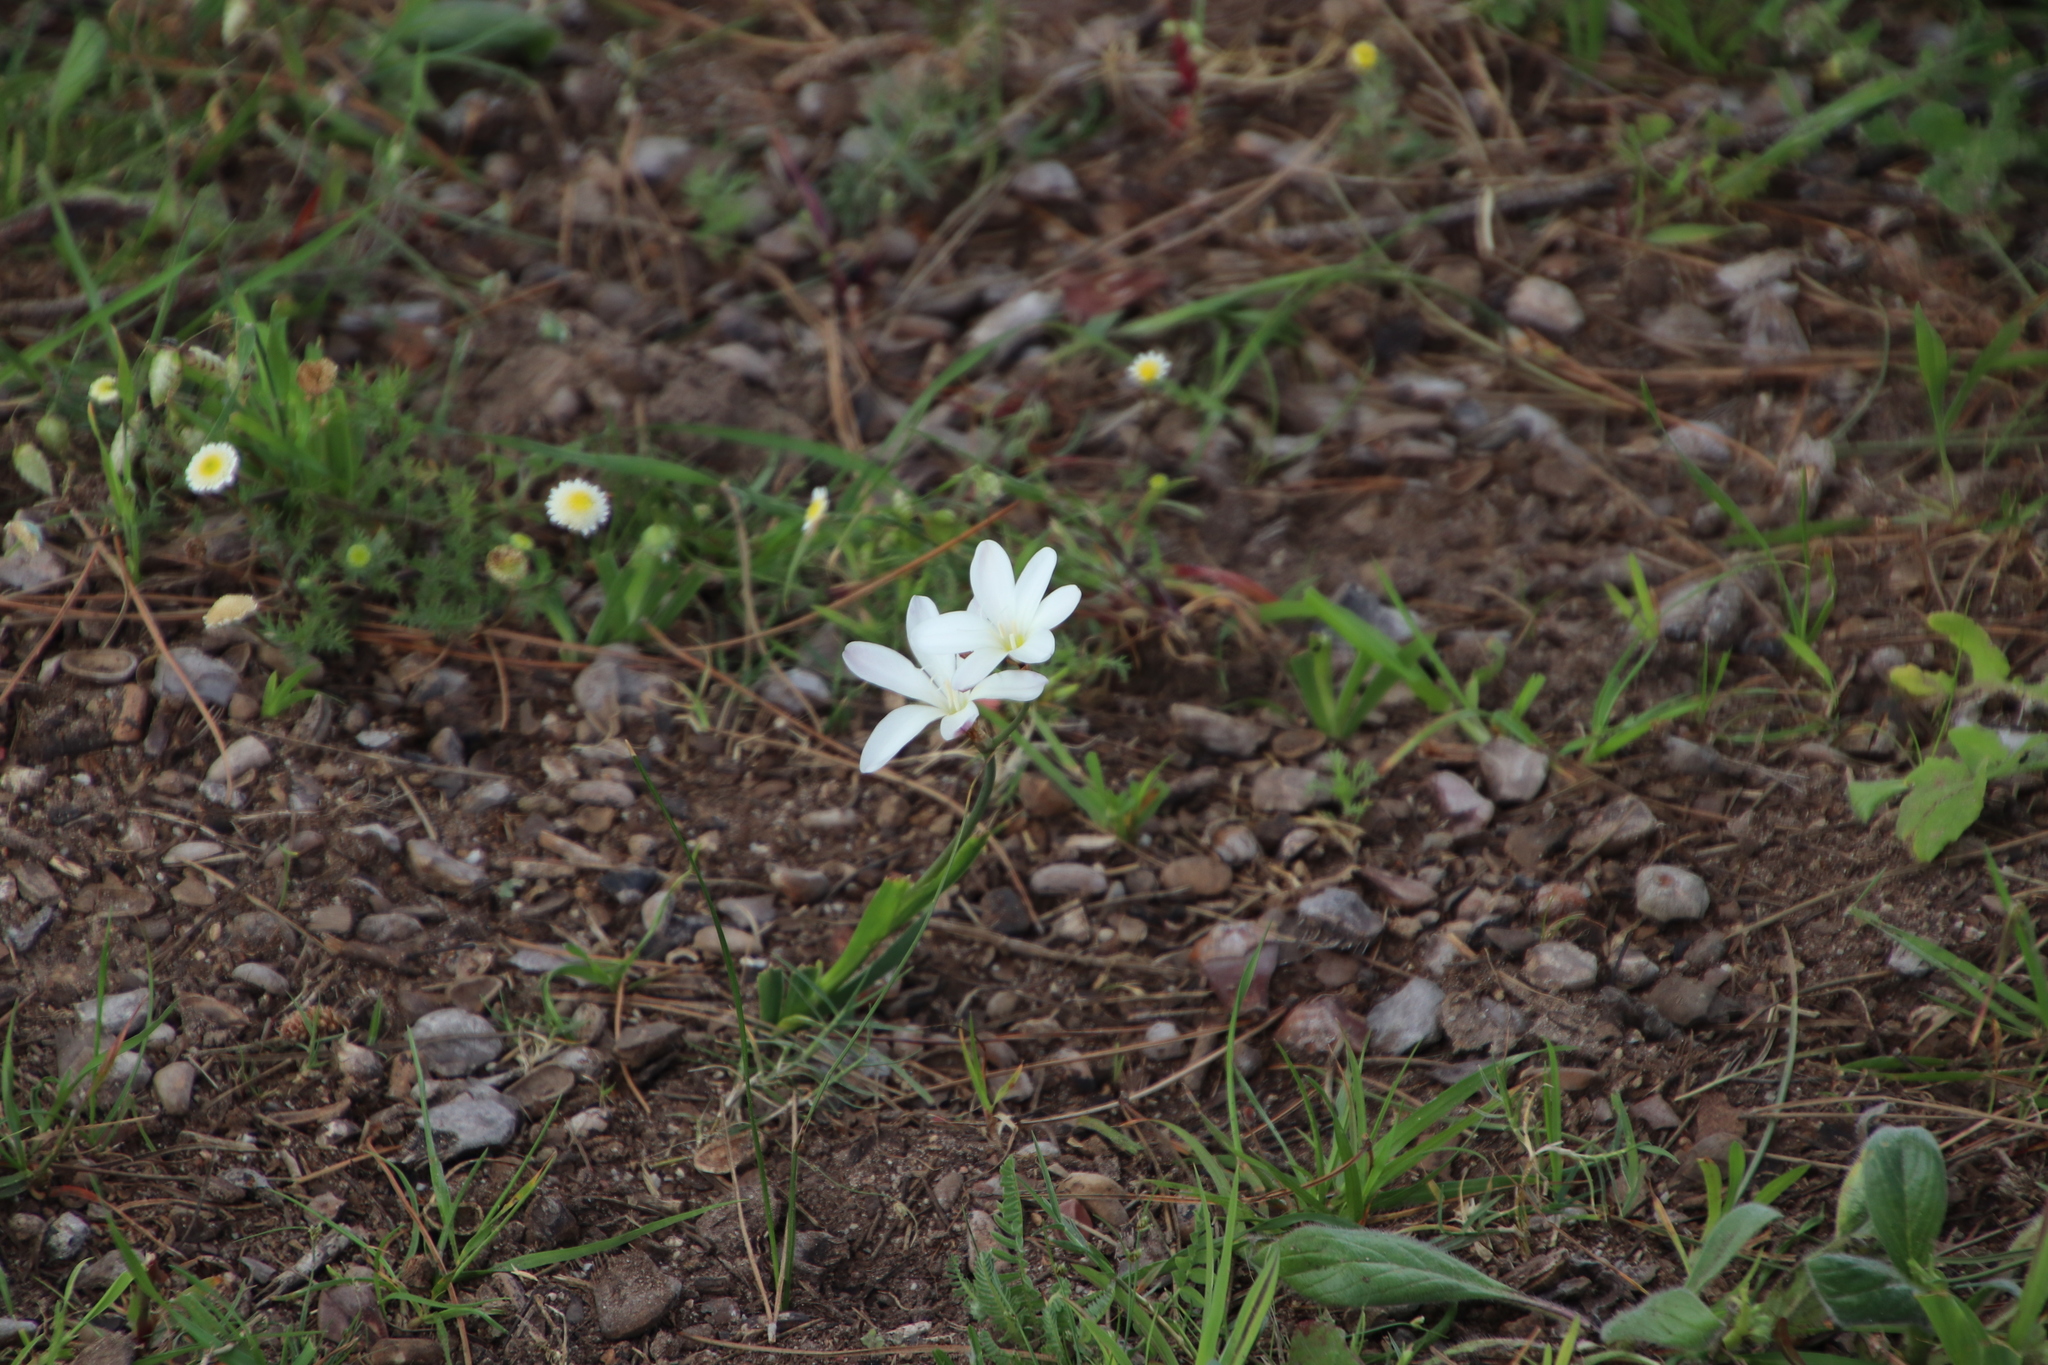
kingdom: Plantae
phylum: Tracheophyta
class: Liliopsida
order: Asparagales
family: Iridaceae
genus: Sparaxis
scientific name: Sparaxis bulbifera
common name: Harlequin-flower
